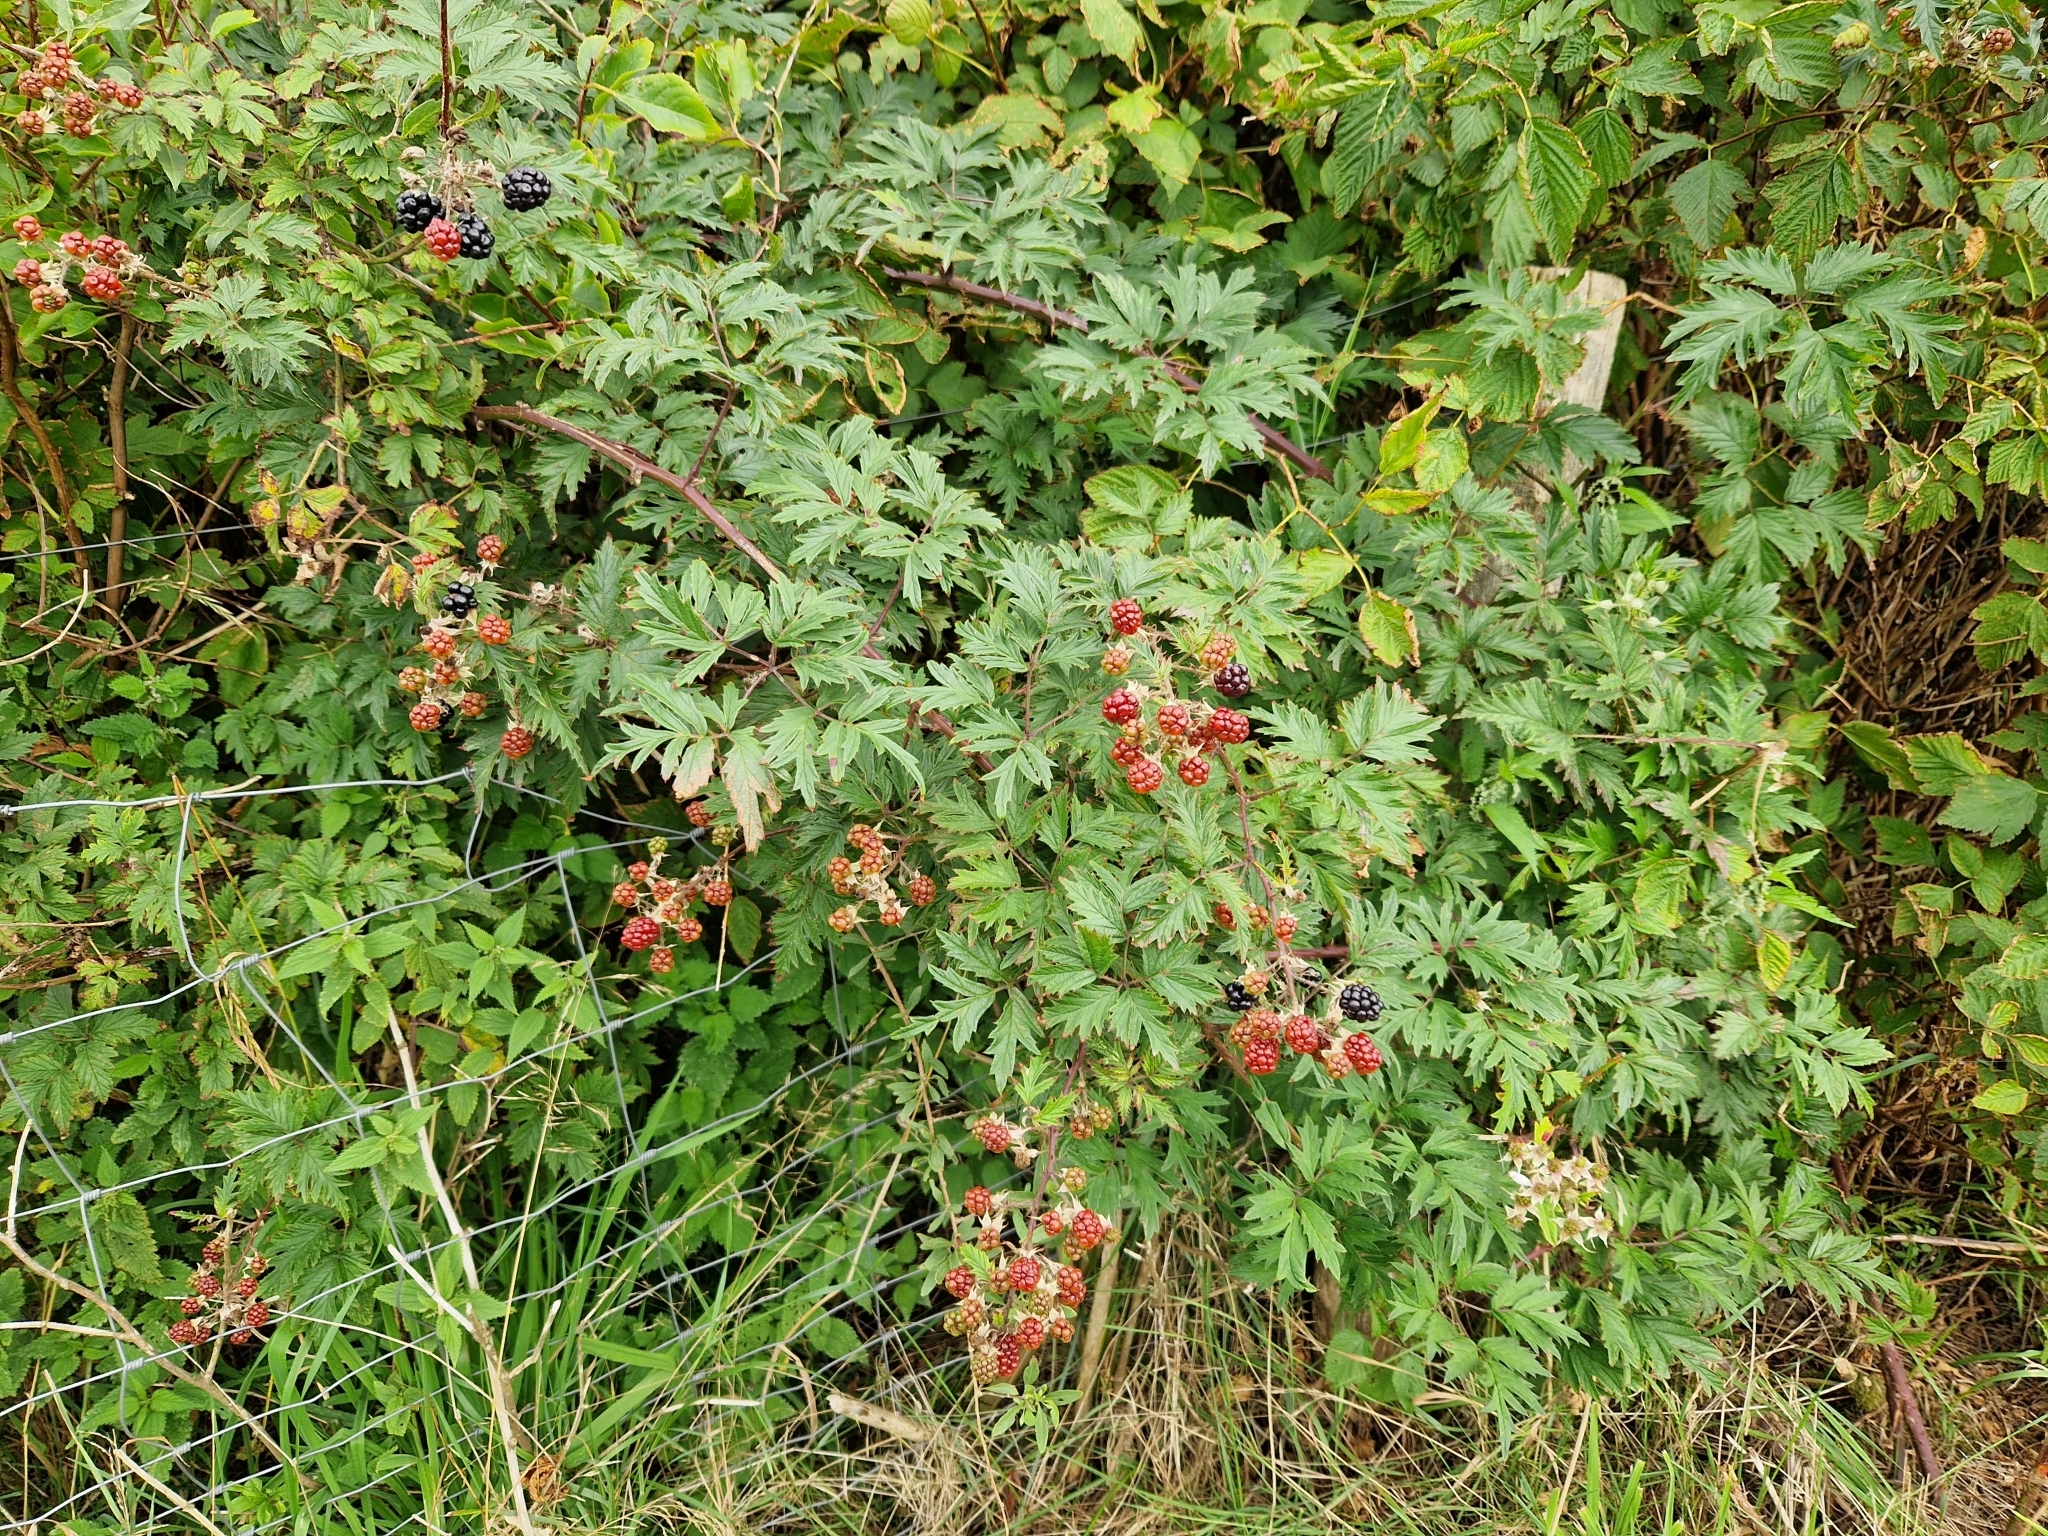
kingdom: Plantae
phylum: Tracheophyta
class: Magnoliopsida
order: Rosales
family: Rosaceae
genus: Rubus
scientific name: Rubus laciniatus
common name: Evergreen blackberry
